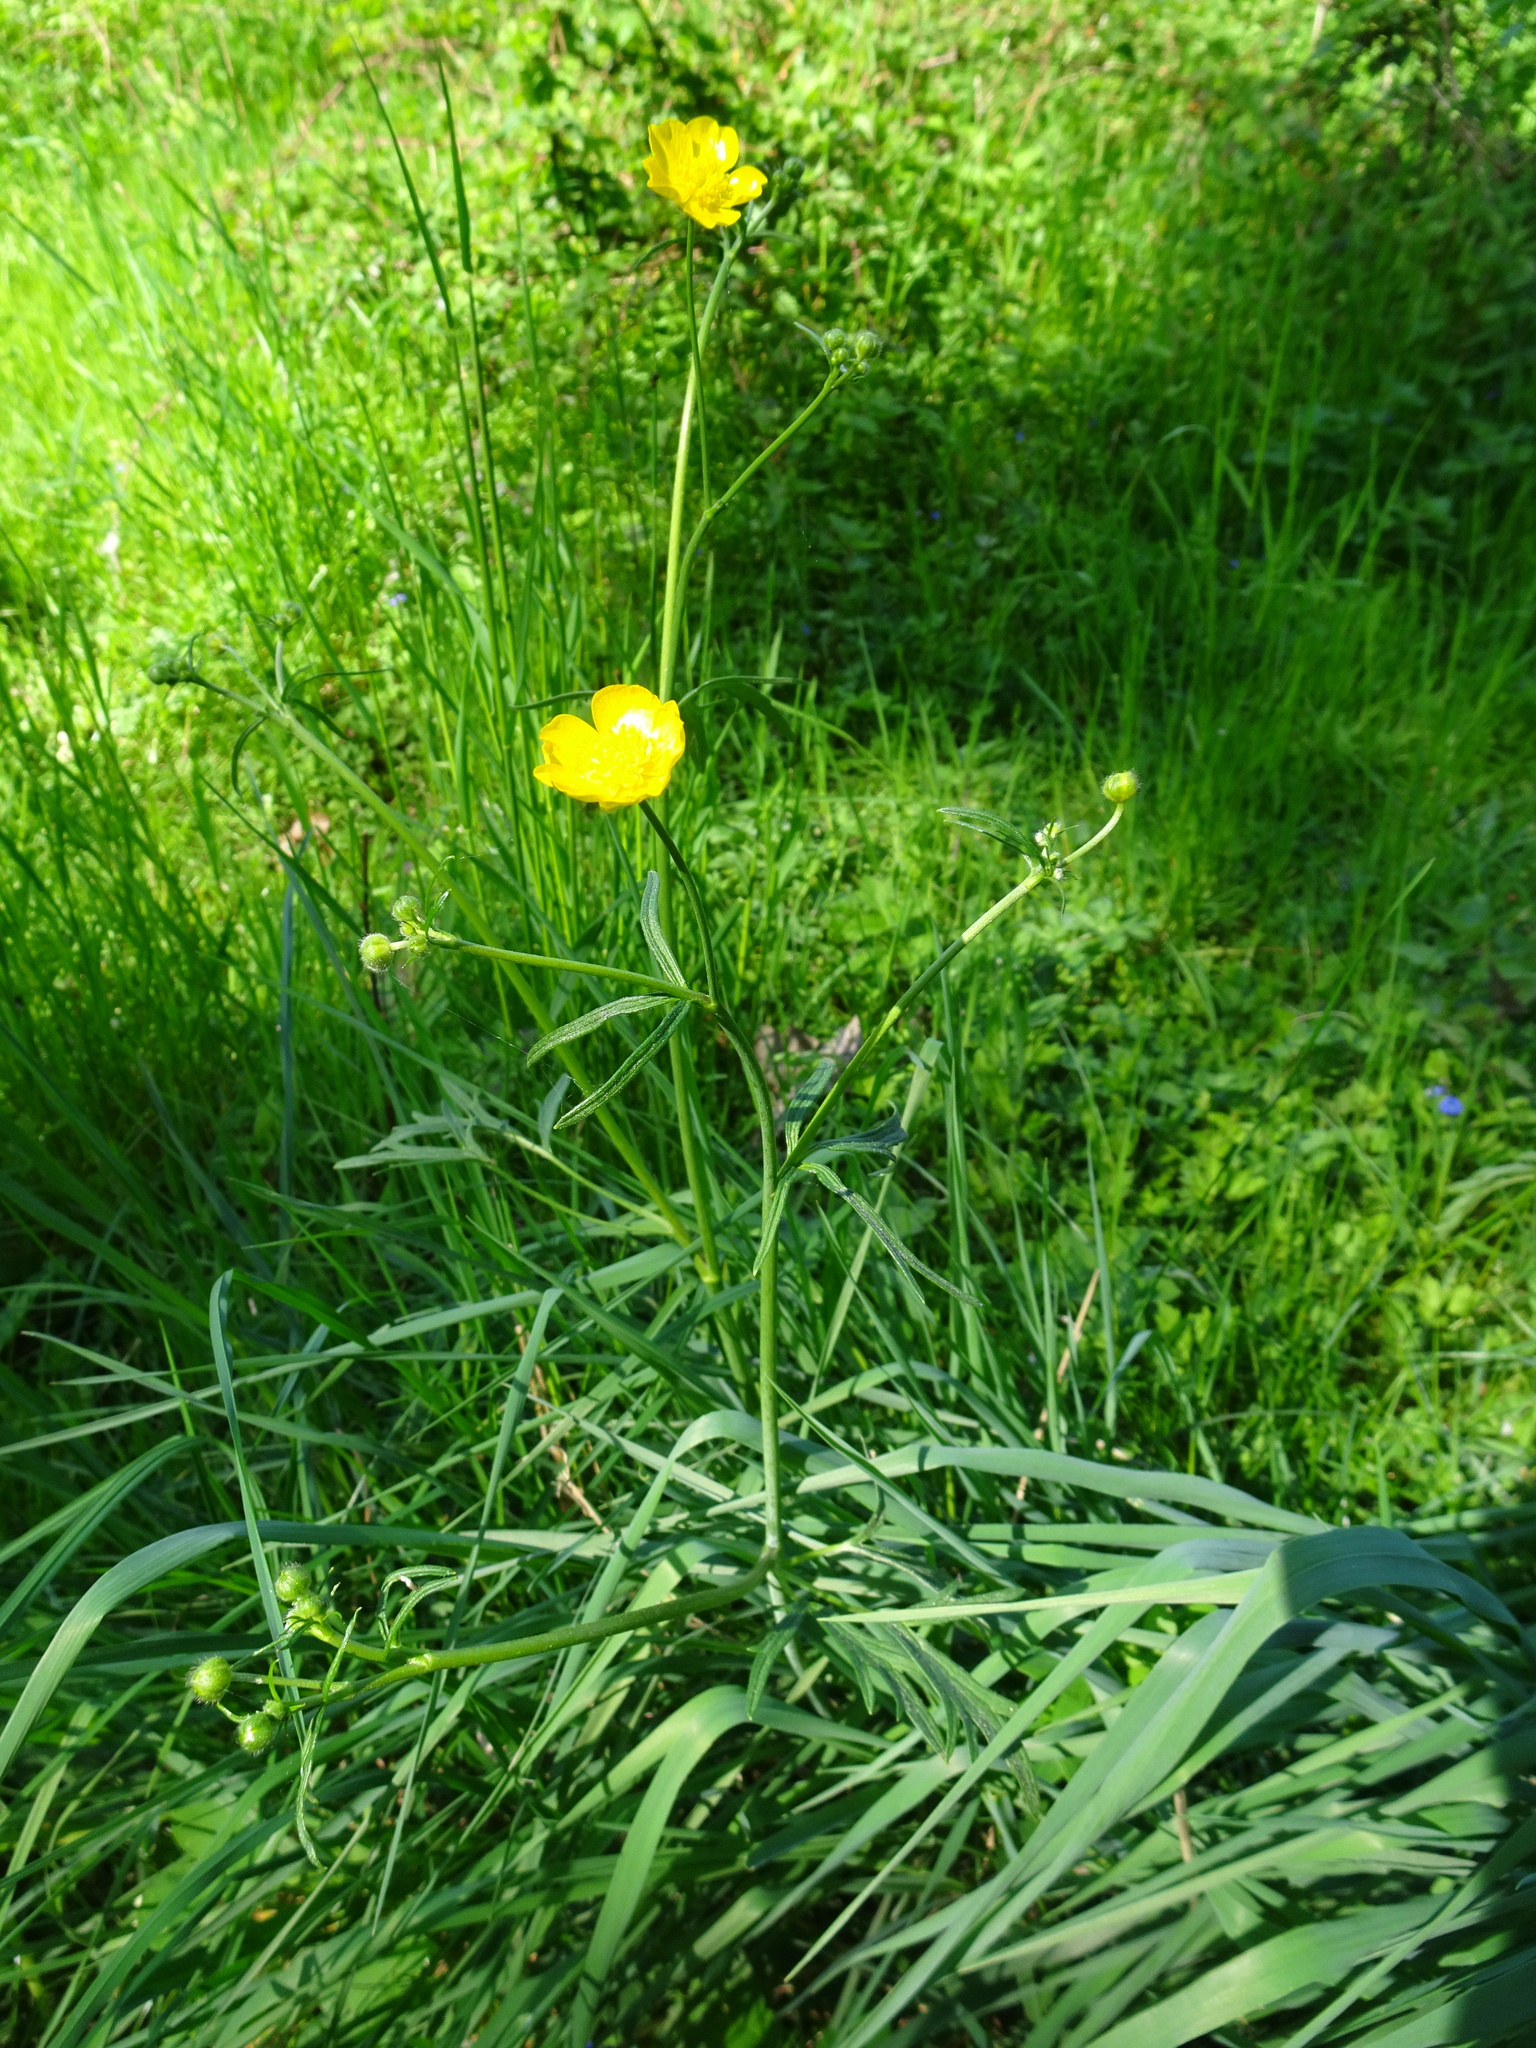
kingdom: Plantae
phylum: Tracheophyta
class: Magnoliopsida
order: Ranunculales
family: Ranunculaceae
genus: Ranunculus
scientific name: Ranunculus acris
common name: Meadow buttercup
